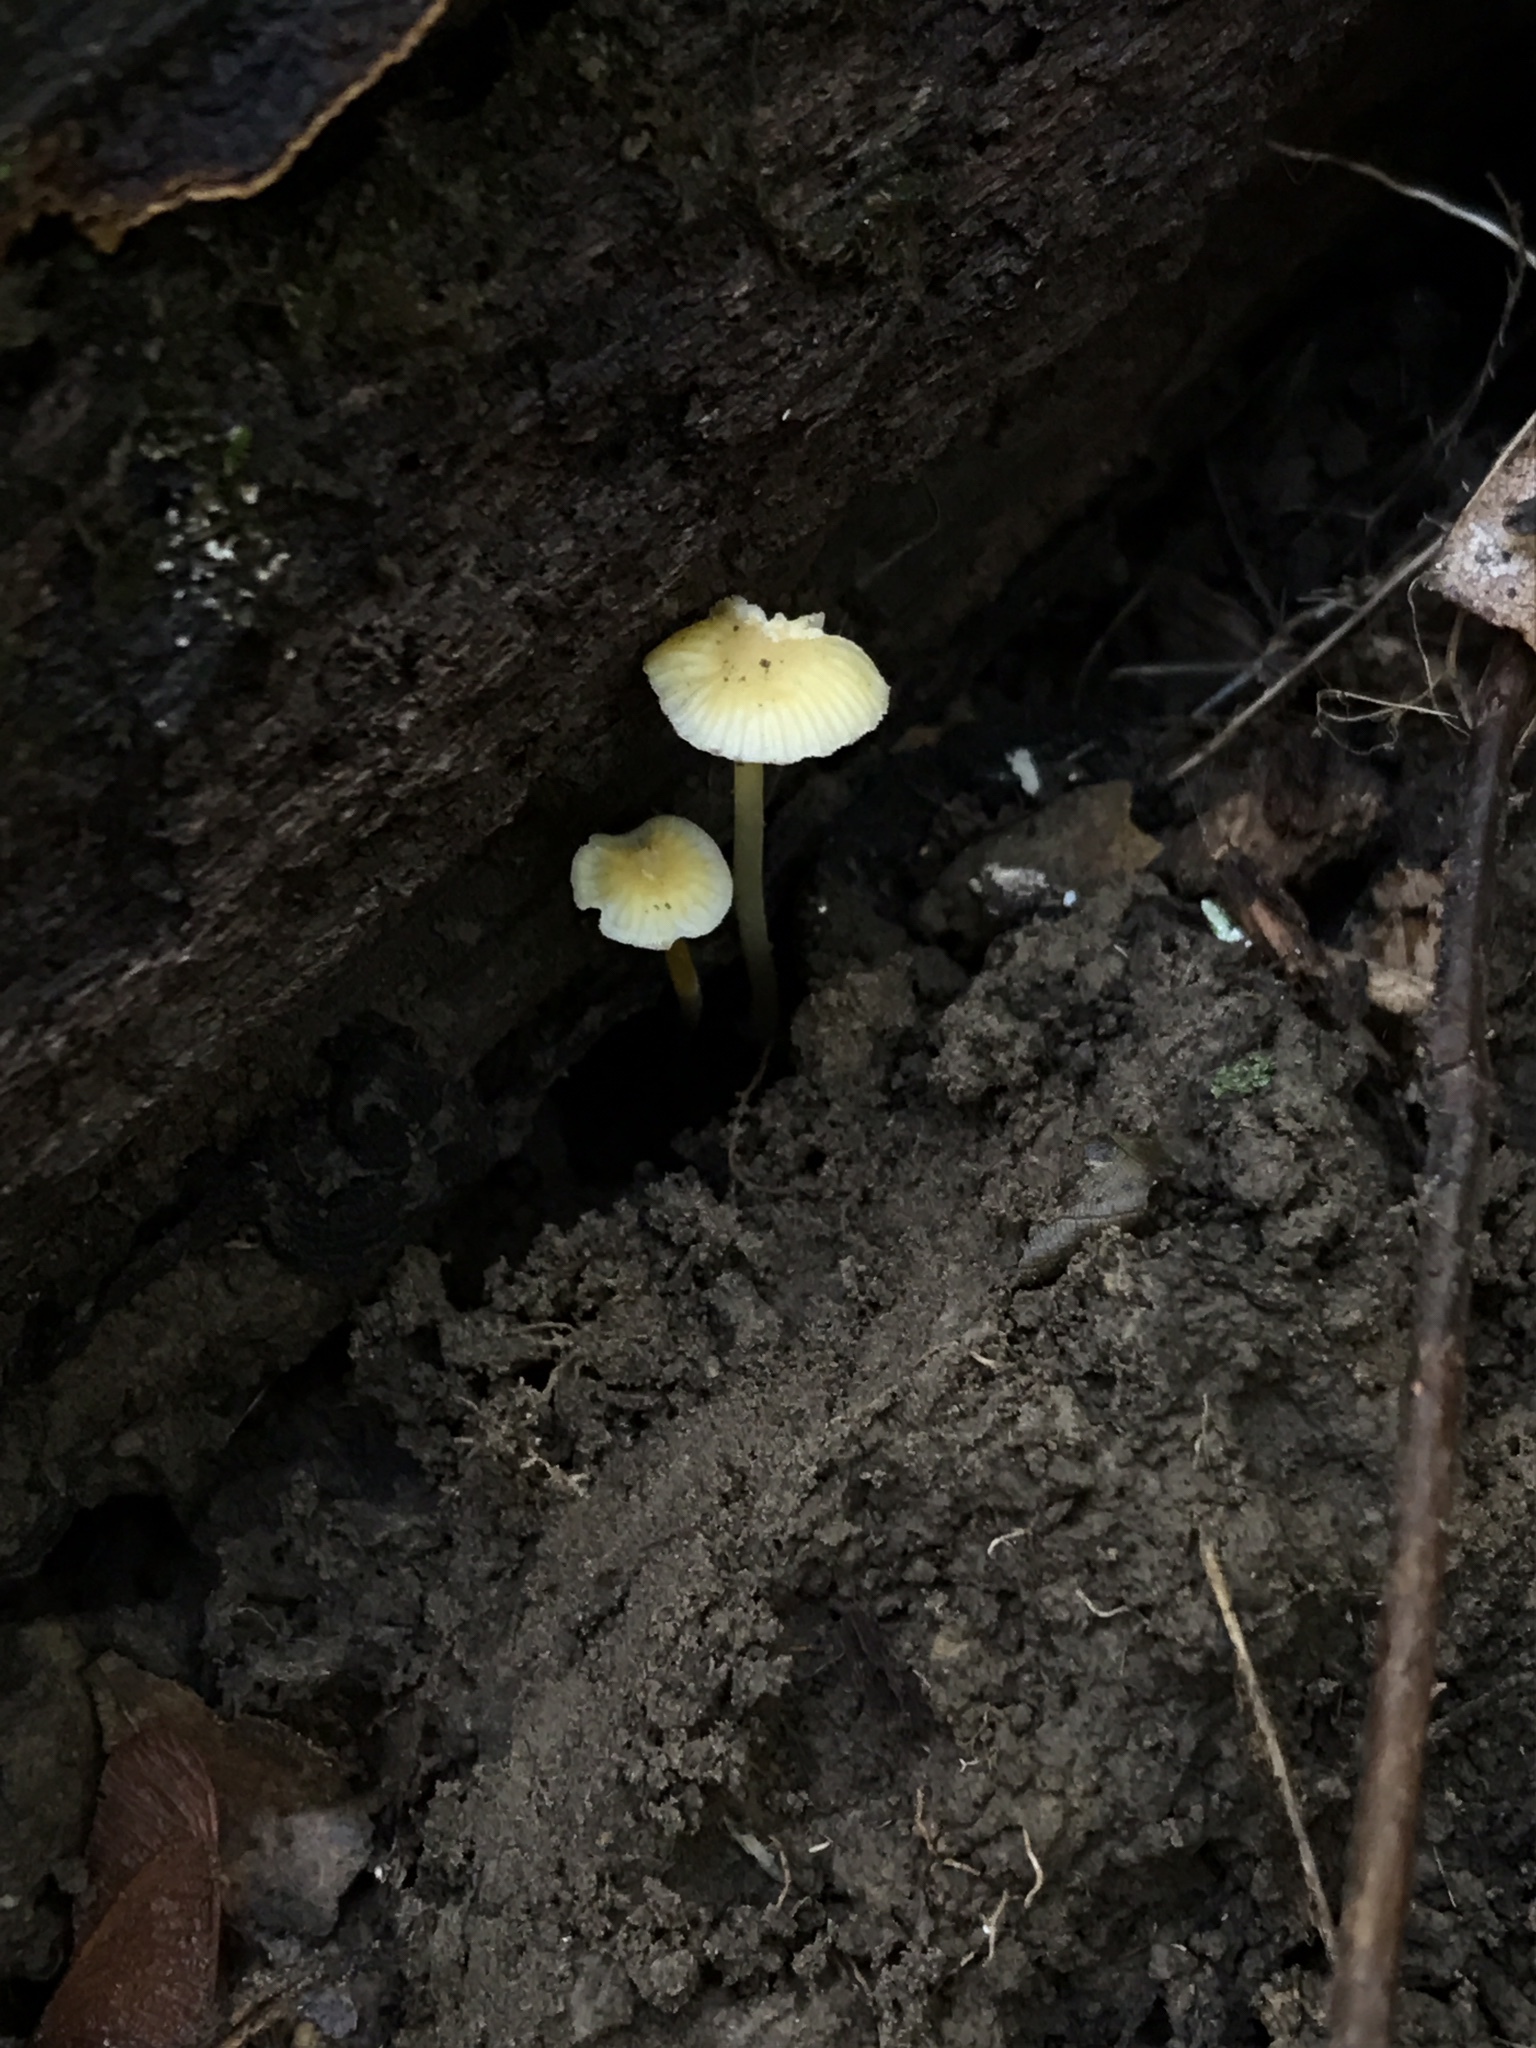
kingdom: Fungi
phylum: Basidiomycota
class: Agaricomycetes
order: Agaricales
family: Mycenaceae
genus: Mycena
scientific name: Mycena crocea
